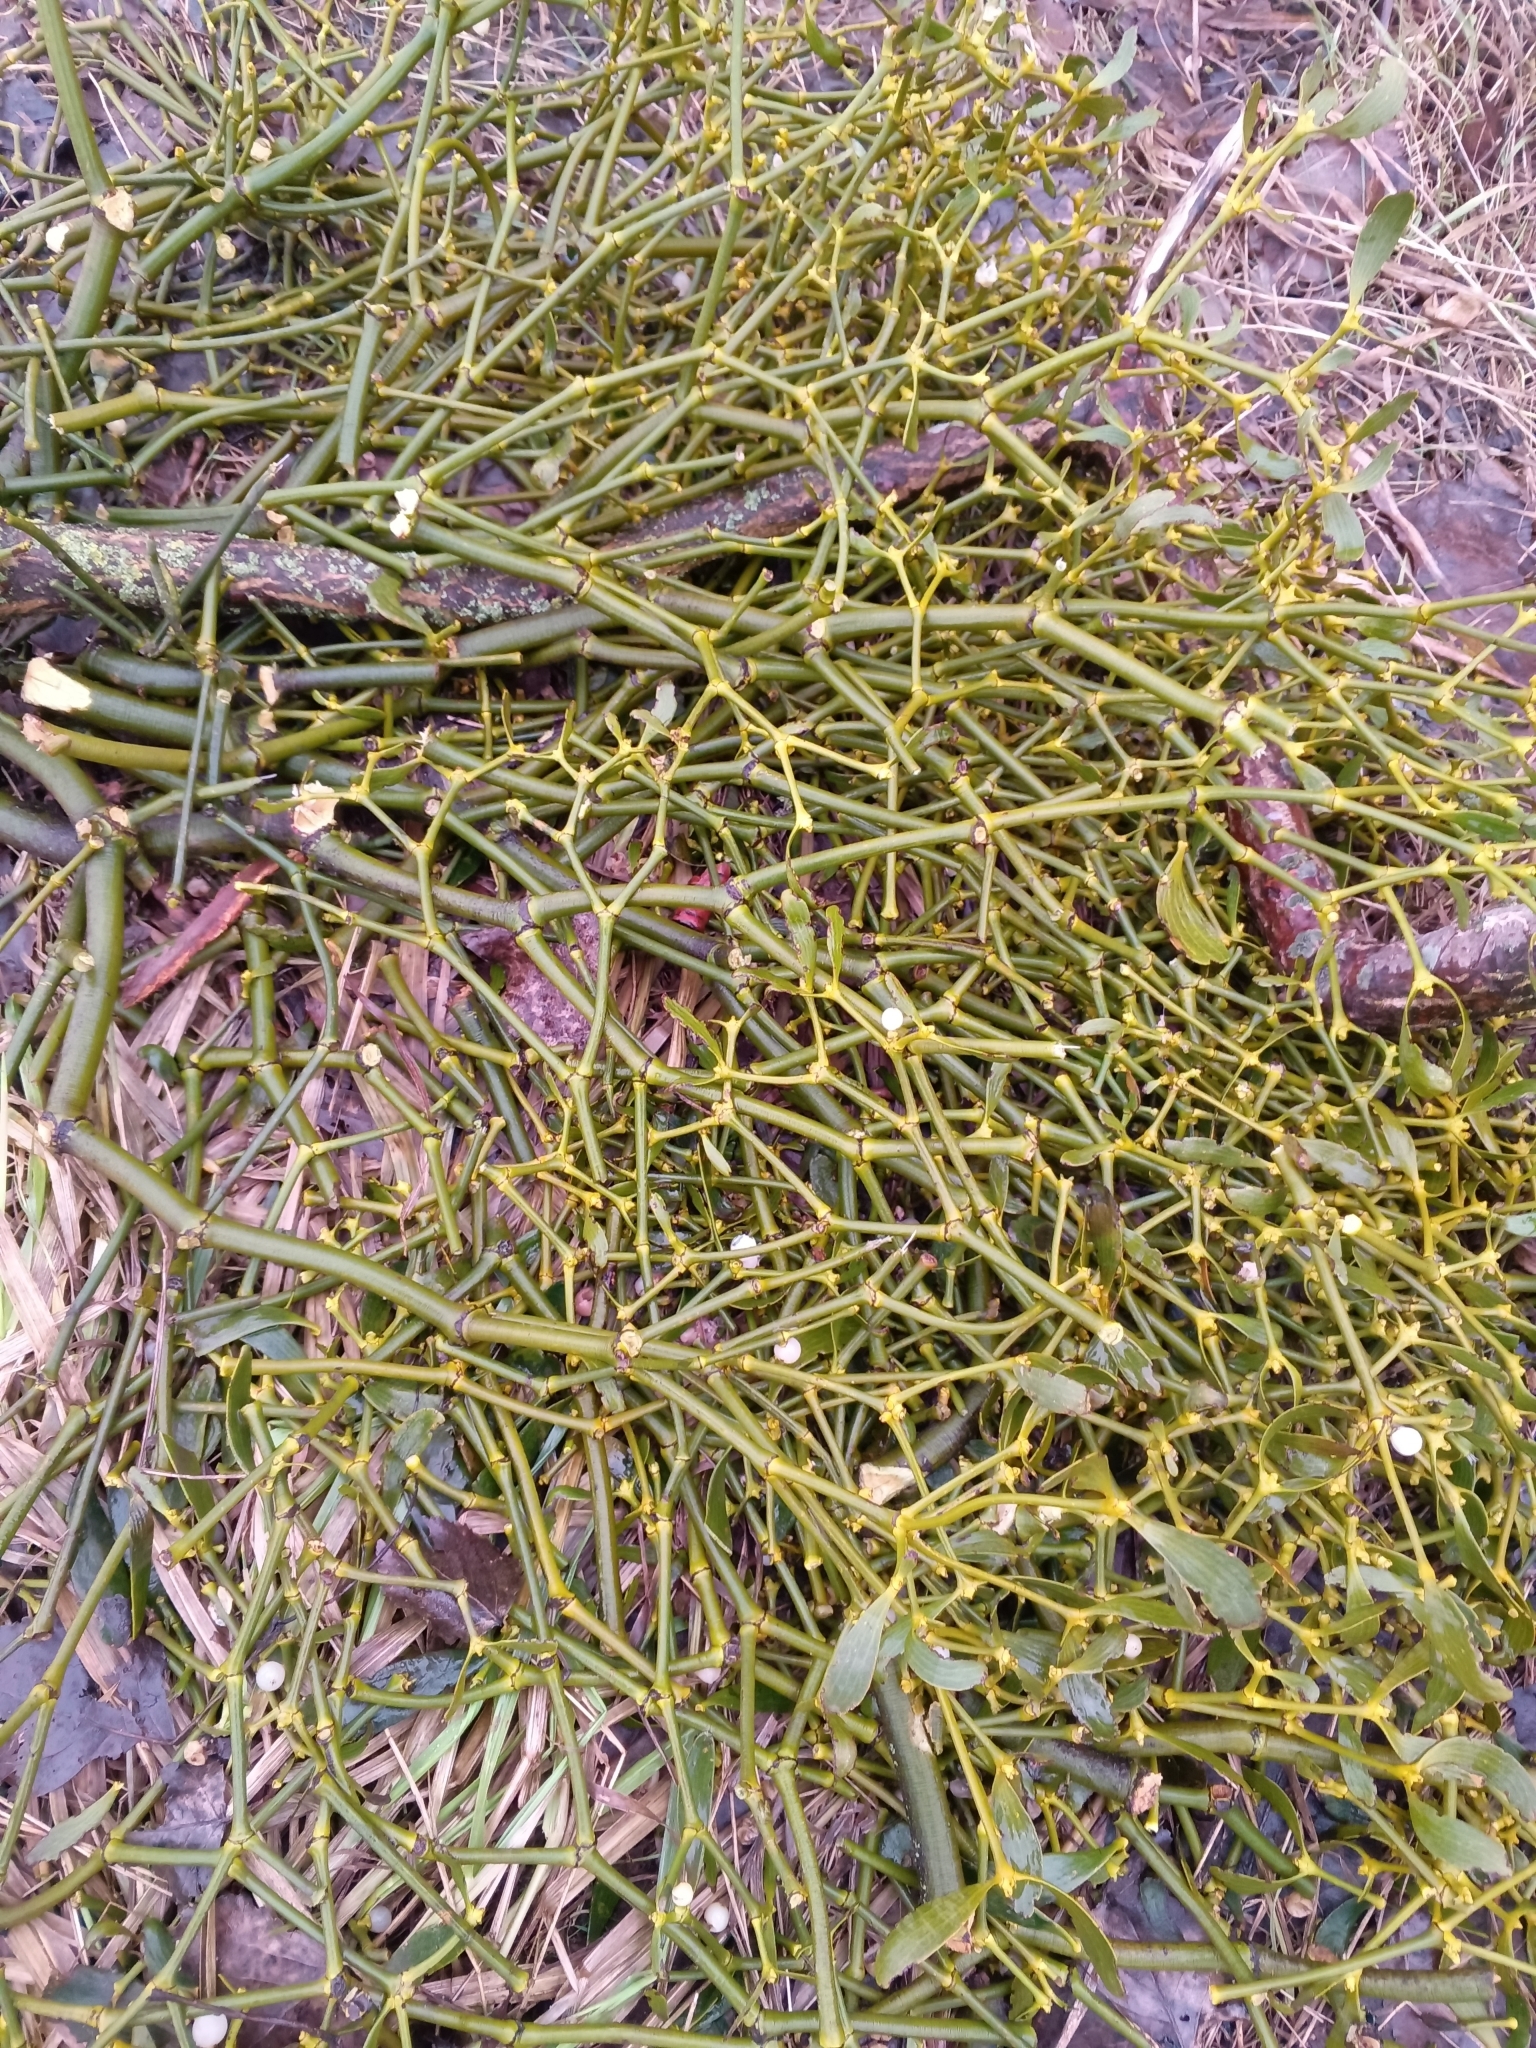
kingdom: Plantae
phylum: Tracheophyta
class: Magnoliopsida
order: Santalales
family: Viscaceae
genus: Viscum
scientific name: Viscum album
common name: Mistletoe
